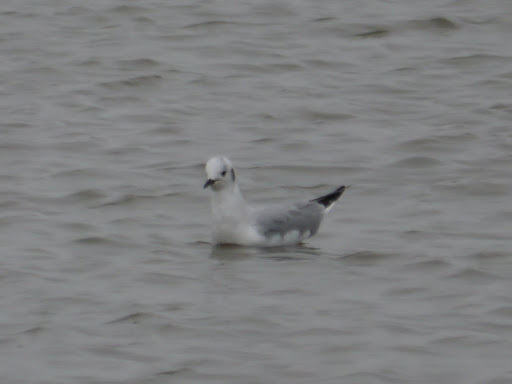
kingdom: Animalia
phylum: Chordata
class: Aves
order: Charadriiformes
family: Laridae
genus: Chroicocephalus
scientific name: Chroicocephalus philadelphia
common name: Bonaparte's gull
